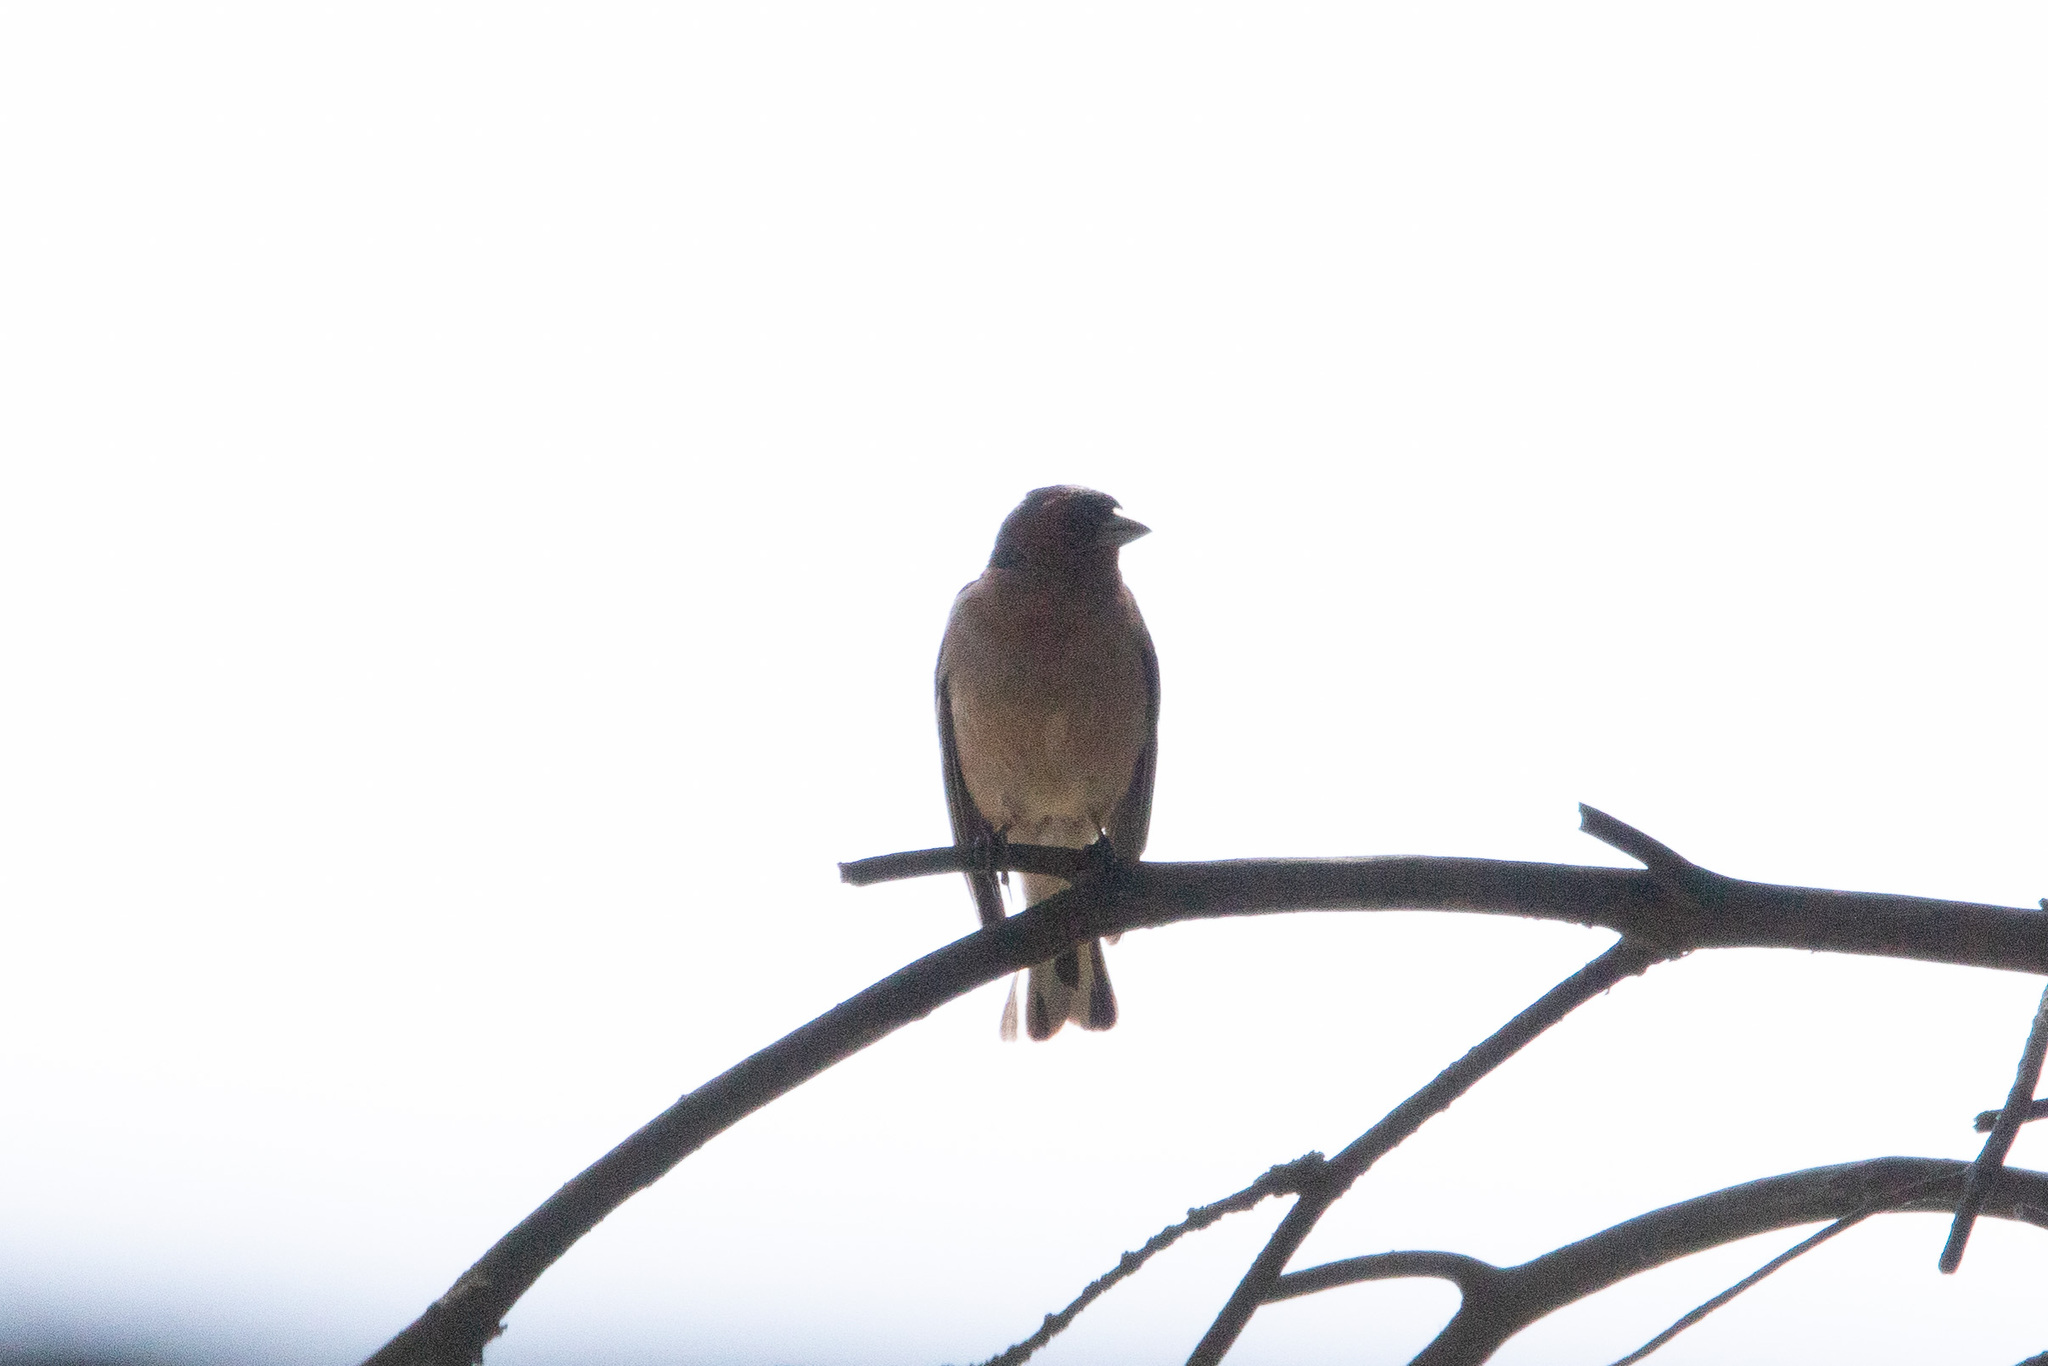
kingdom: Animalia
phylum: Chordata
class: Aves
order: Passeriformes
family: Fringillidae
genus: Fringilla
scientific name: Fringilla coelebs
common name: Common chaffinch
